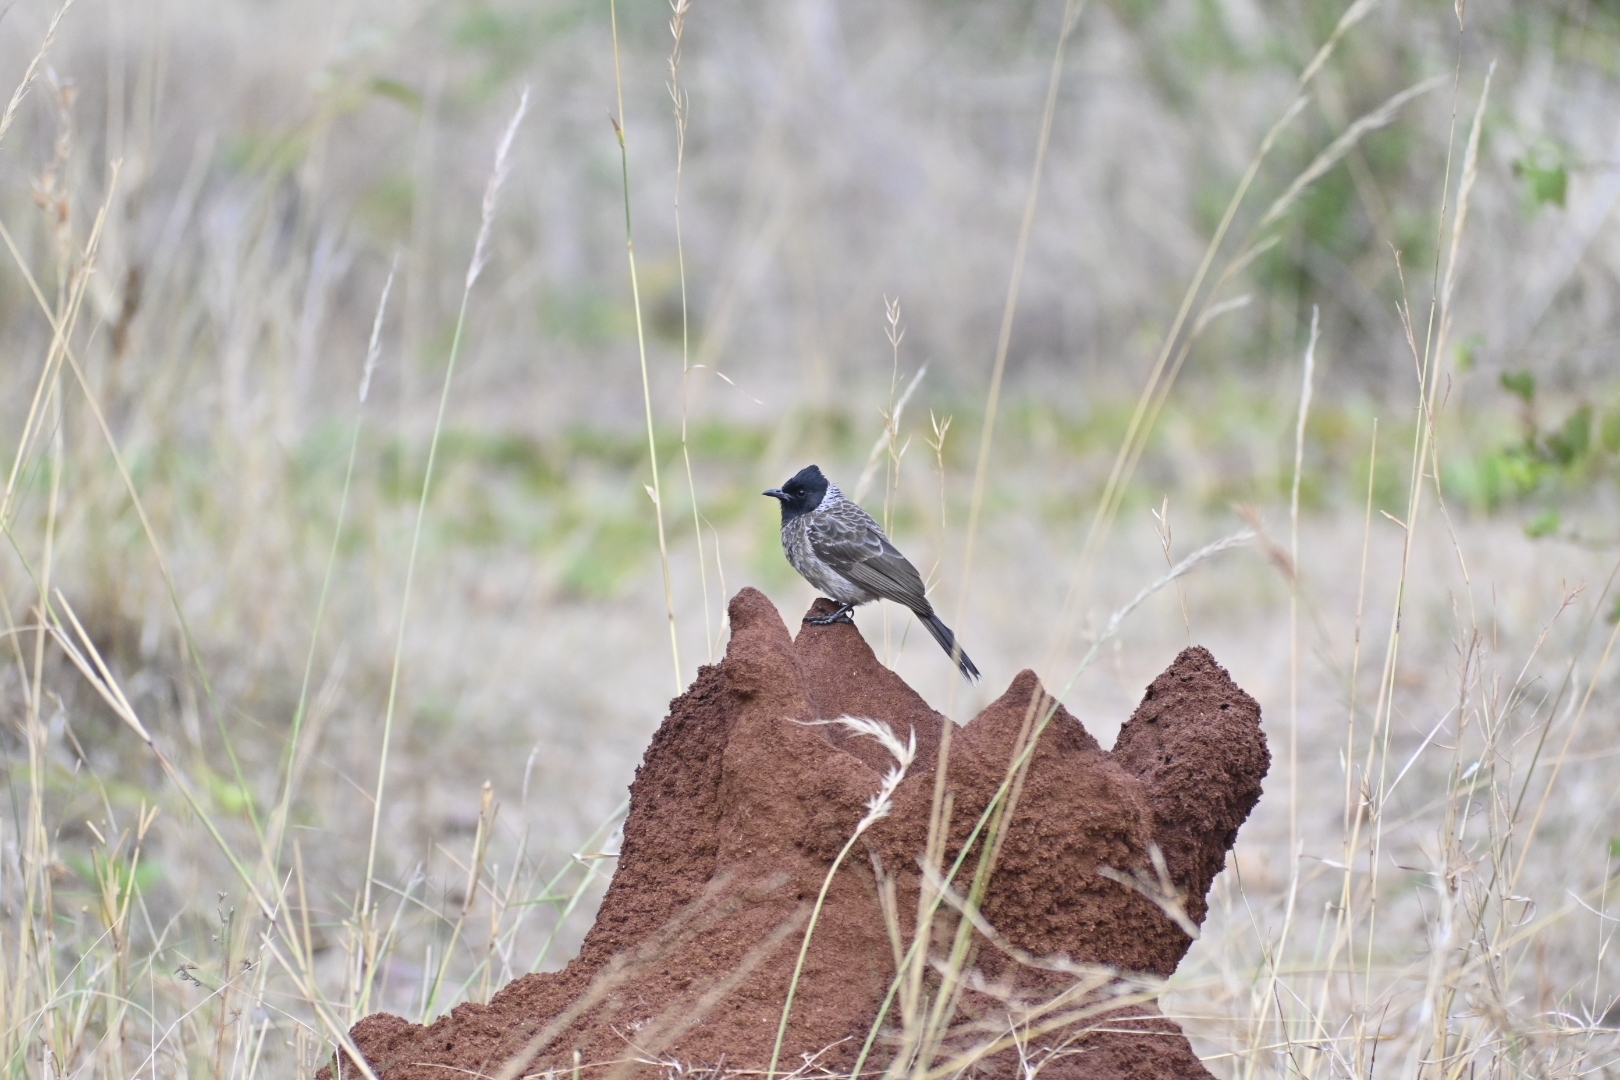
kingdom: Animalia
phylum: Chordata
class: Aves
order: Passeriformes
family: Pycnonotidae
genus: Pycnonotus
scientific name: Pycnonotus cafer
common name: Red-vented bulbul
